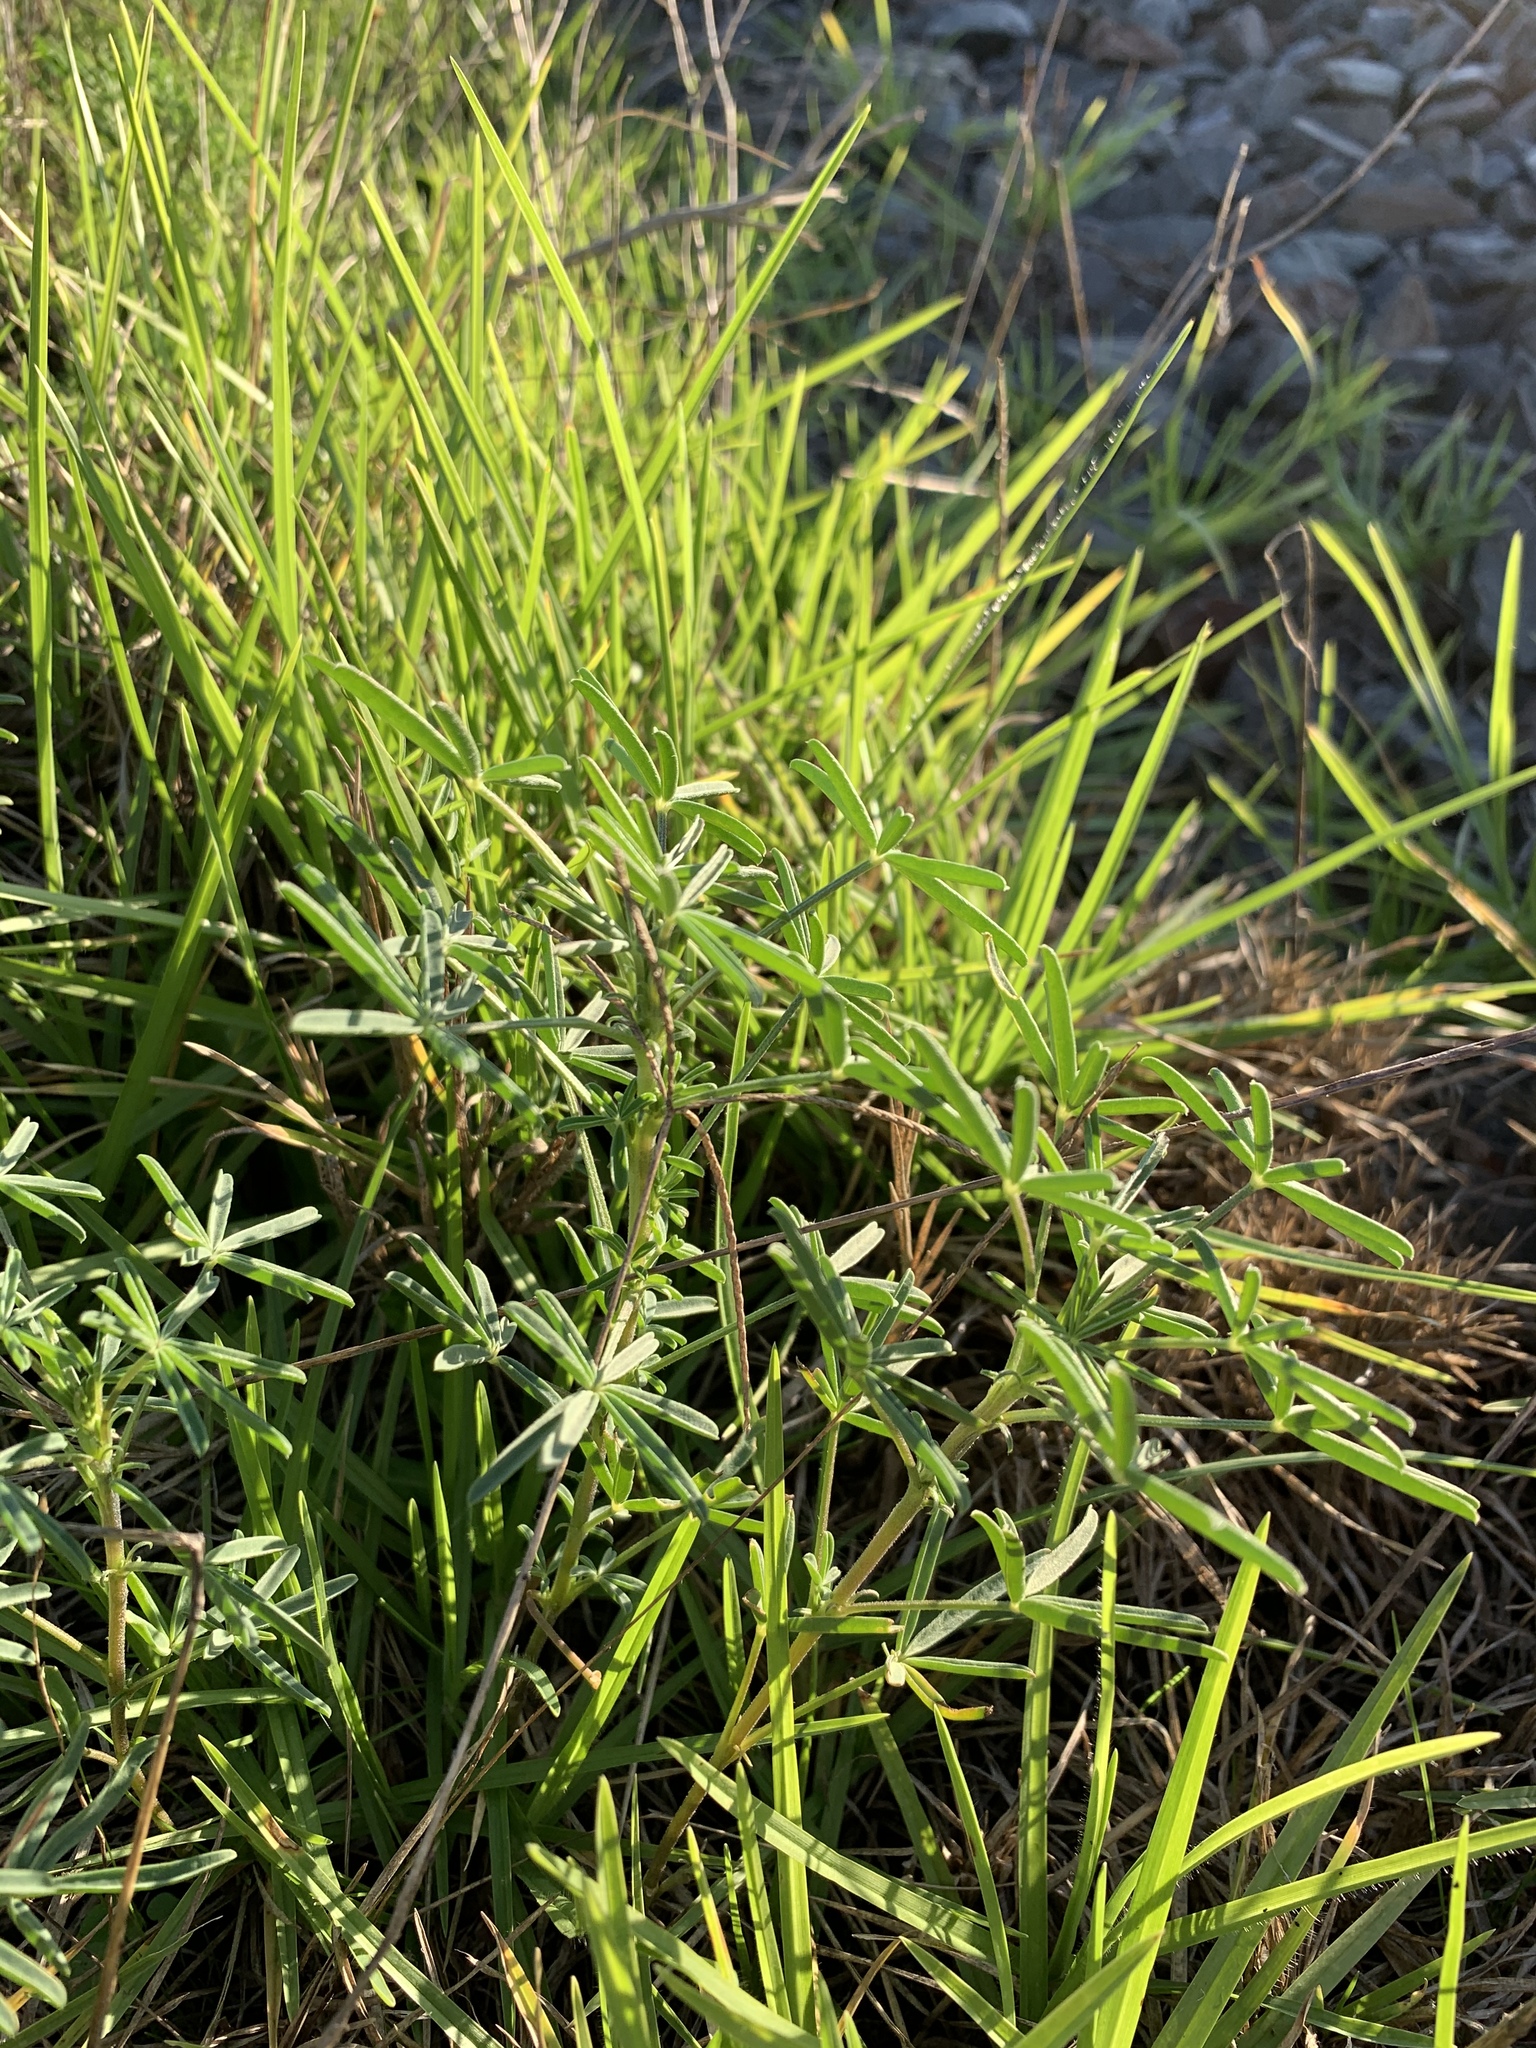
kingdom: Plantae
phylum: Tracheophyta
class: Magnoliopsida
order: Fabales
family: Fabaceae
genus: Lupinus
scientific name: Lupinus angustifolius
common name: Narrow-leaved lupin
